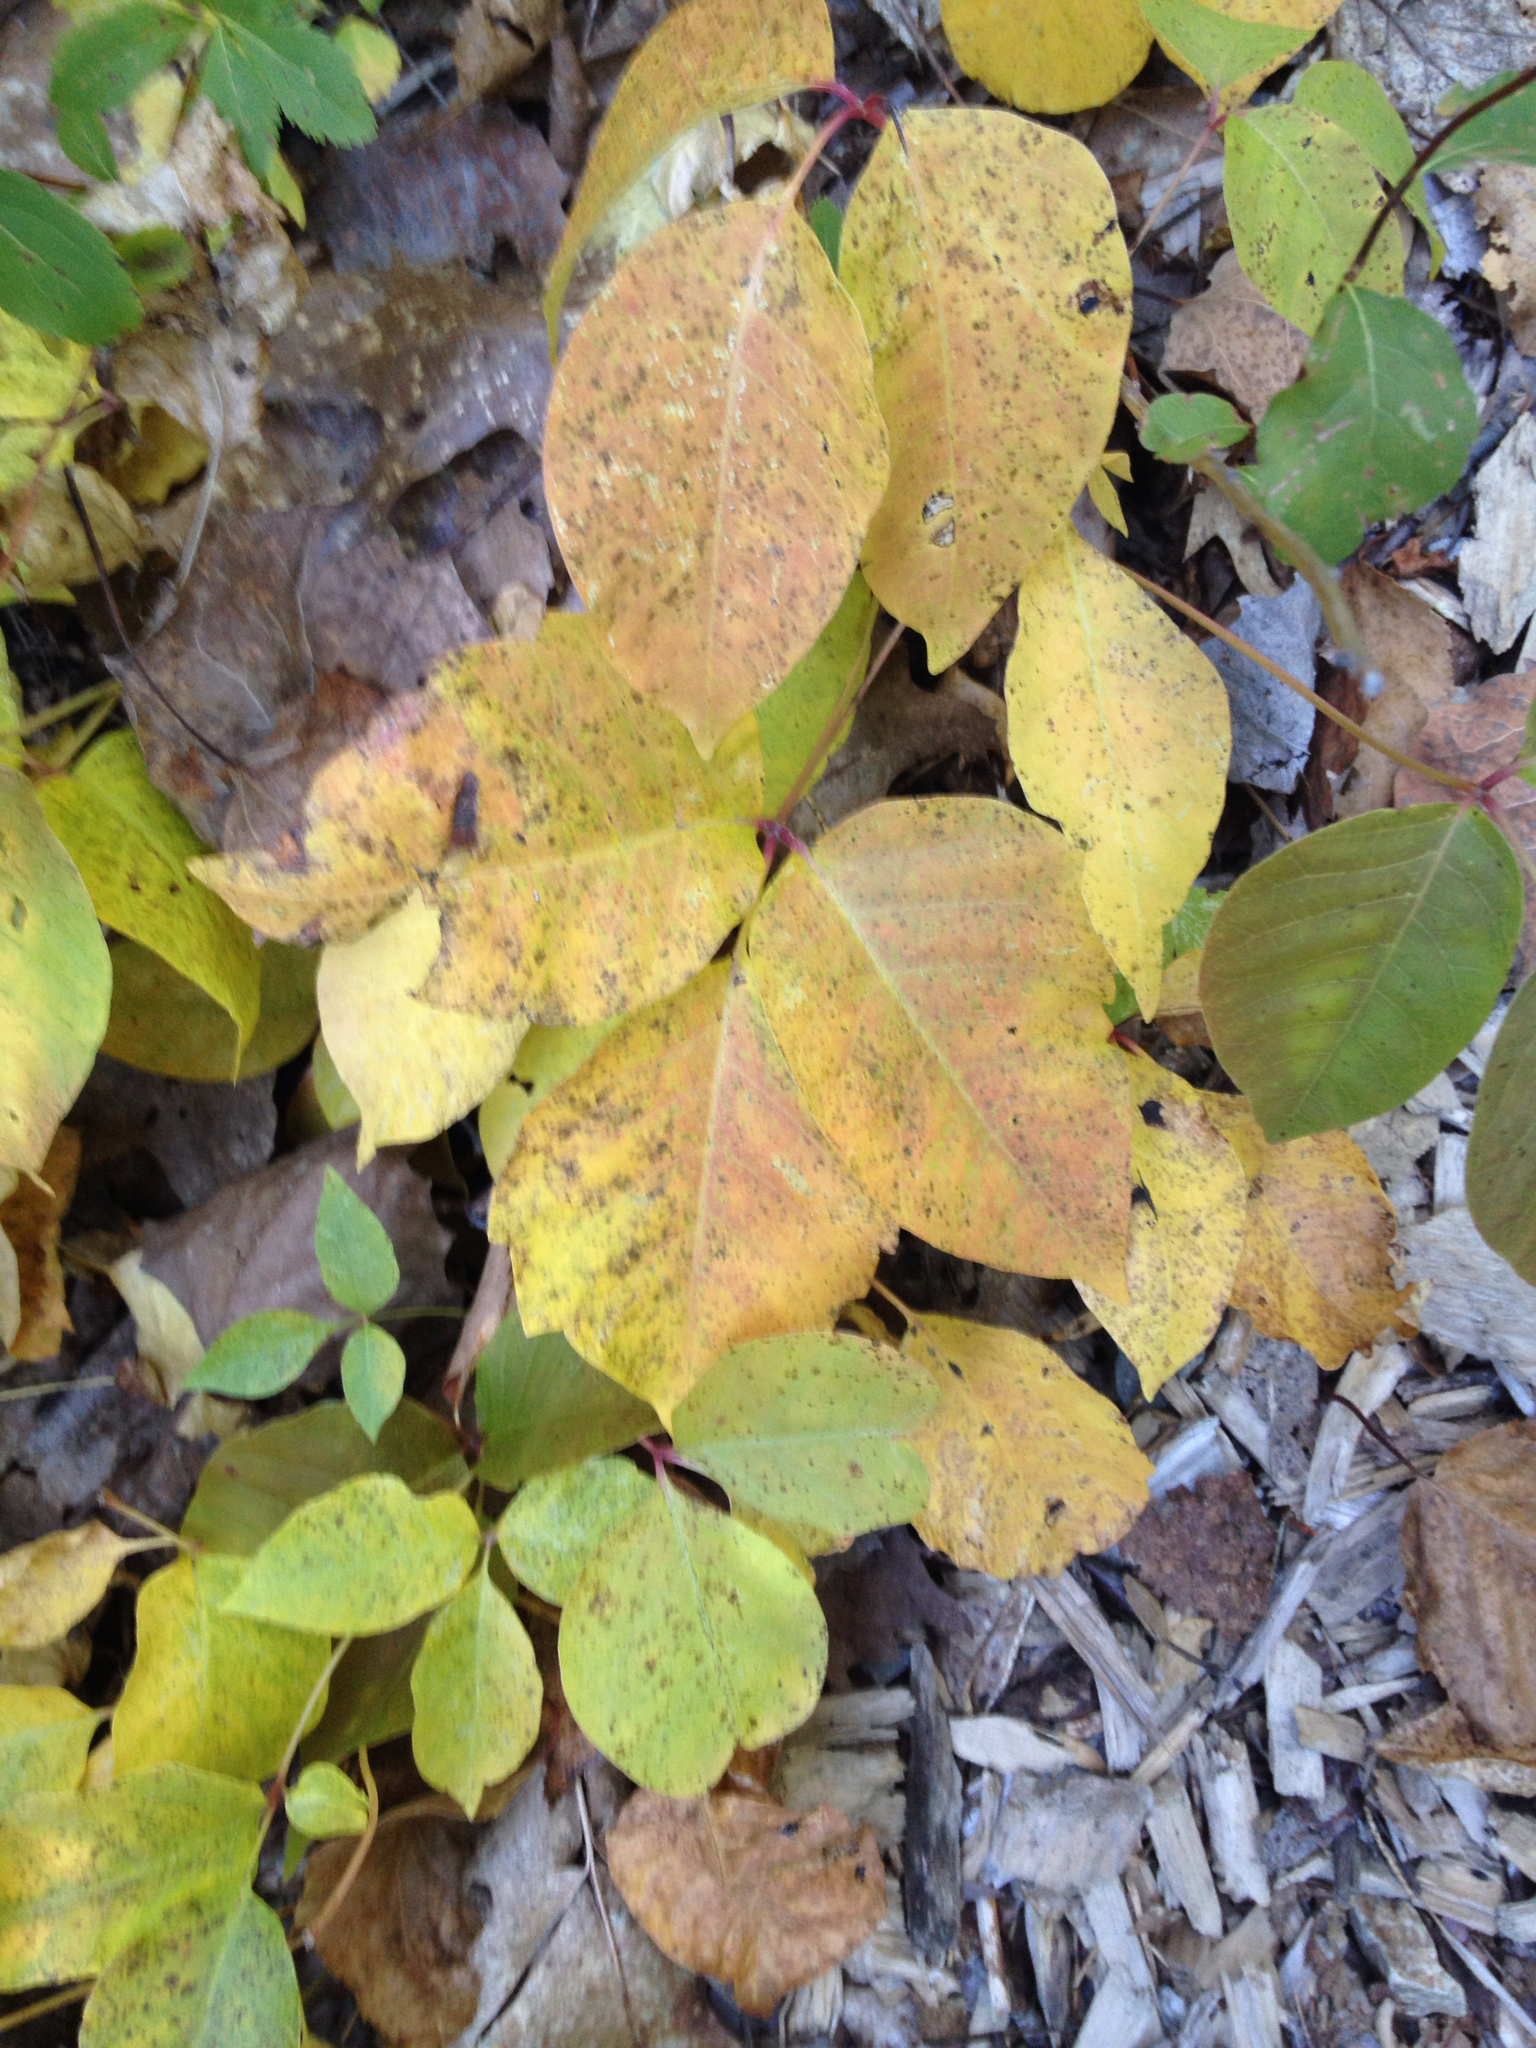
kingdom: Plantae
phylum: Tracheophyta
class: Magnoliopsida
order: Sapindales
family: Anacardiaceae
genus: Toxicodendron
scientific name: Toxicodendron rydbergii
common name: Rydberg's poison-ivy
